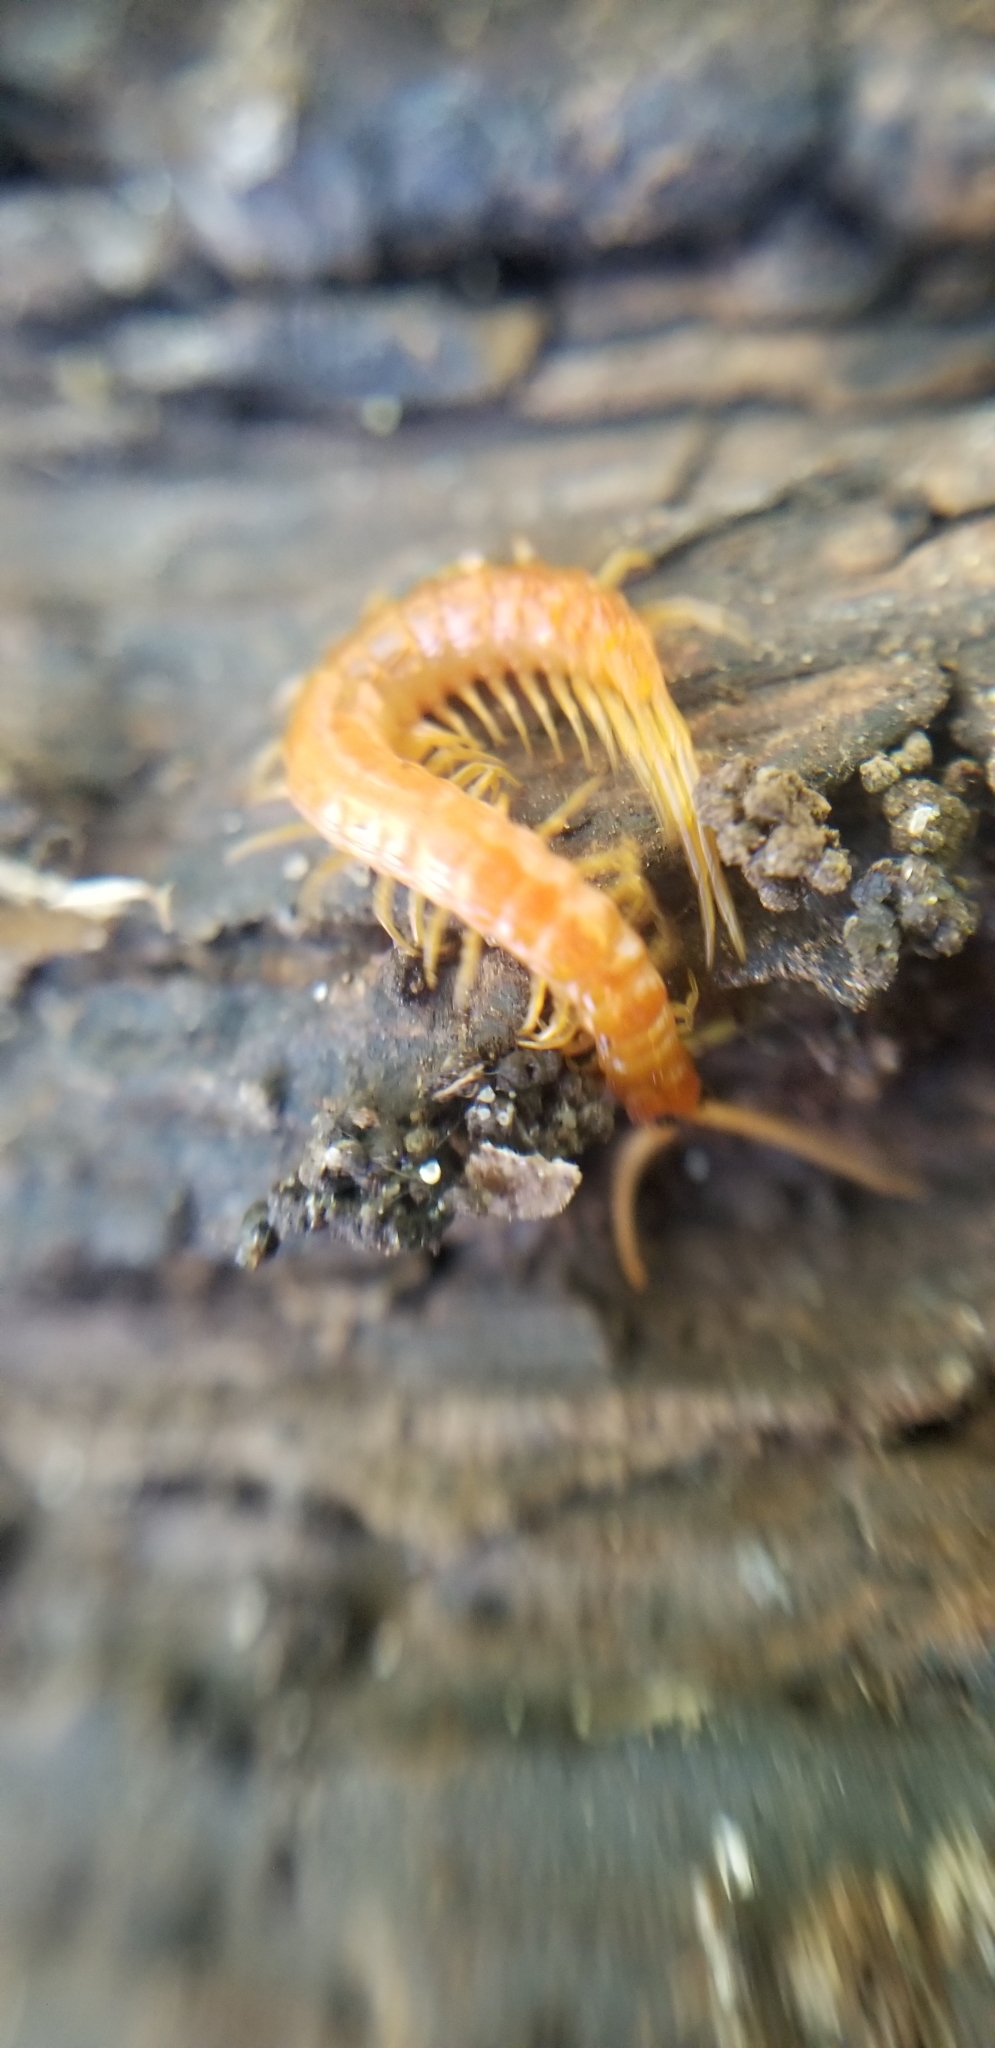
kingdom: Animalia
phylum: Arthropoda
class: Chilopoda
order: Scolopendromorpha
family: Scolopocryptopidae
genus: Scolopocryptops
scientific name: Scolopocryptops peregrinator
